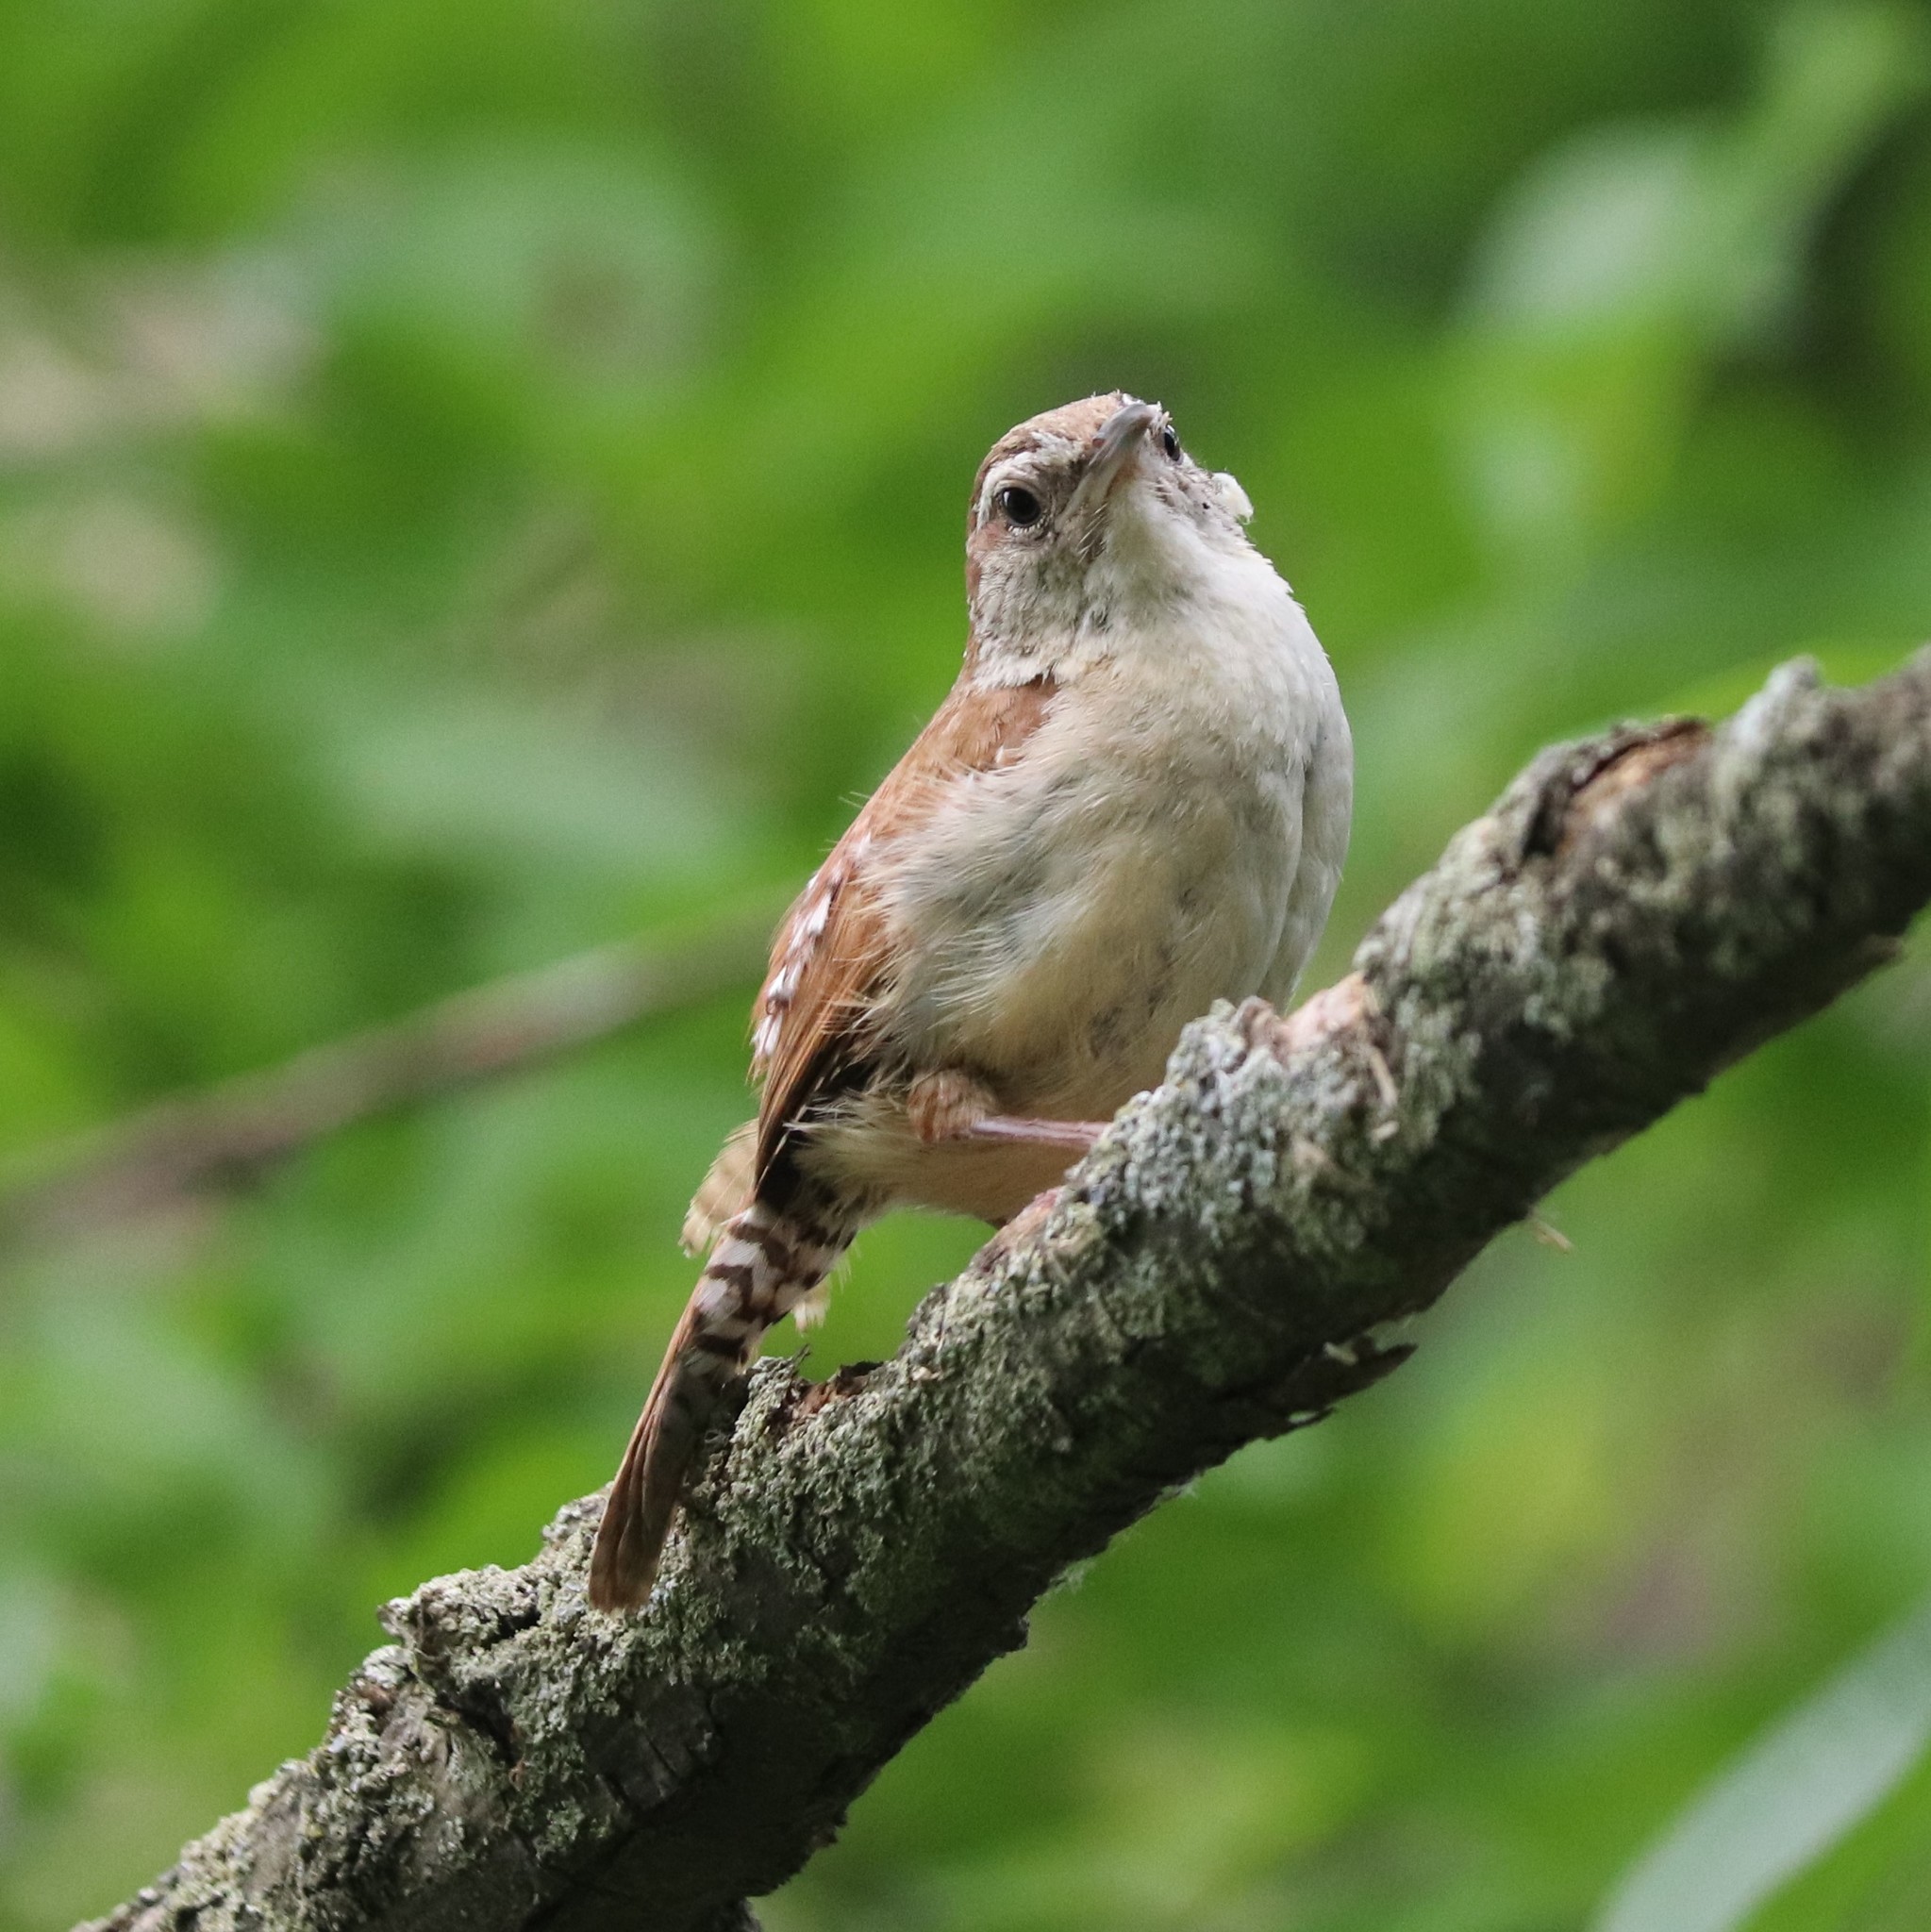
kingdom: Animalia
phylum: Chordata
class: Aves
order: Passeriformes
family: Troglodytidae
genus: Thryothorus
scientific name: Thryothorus ludovicianus
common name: Carolina wren
